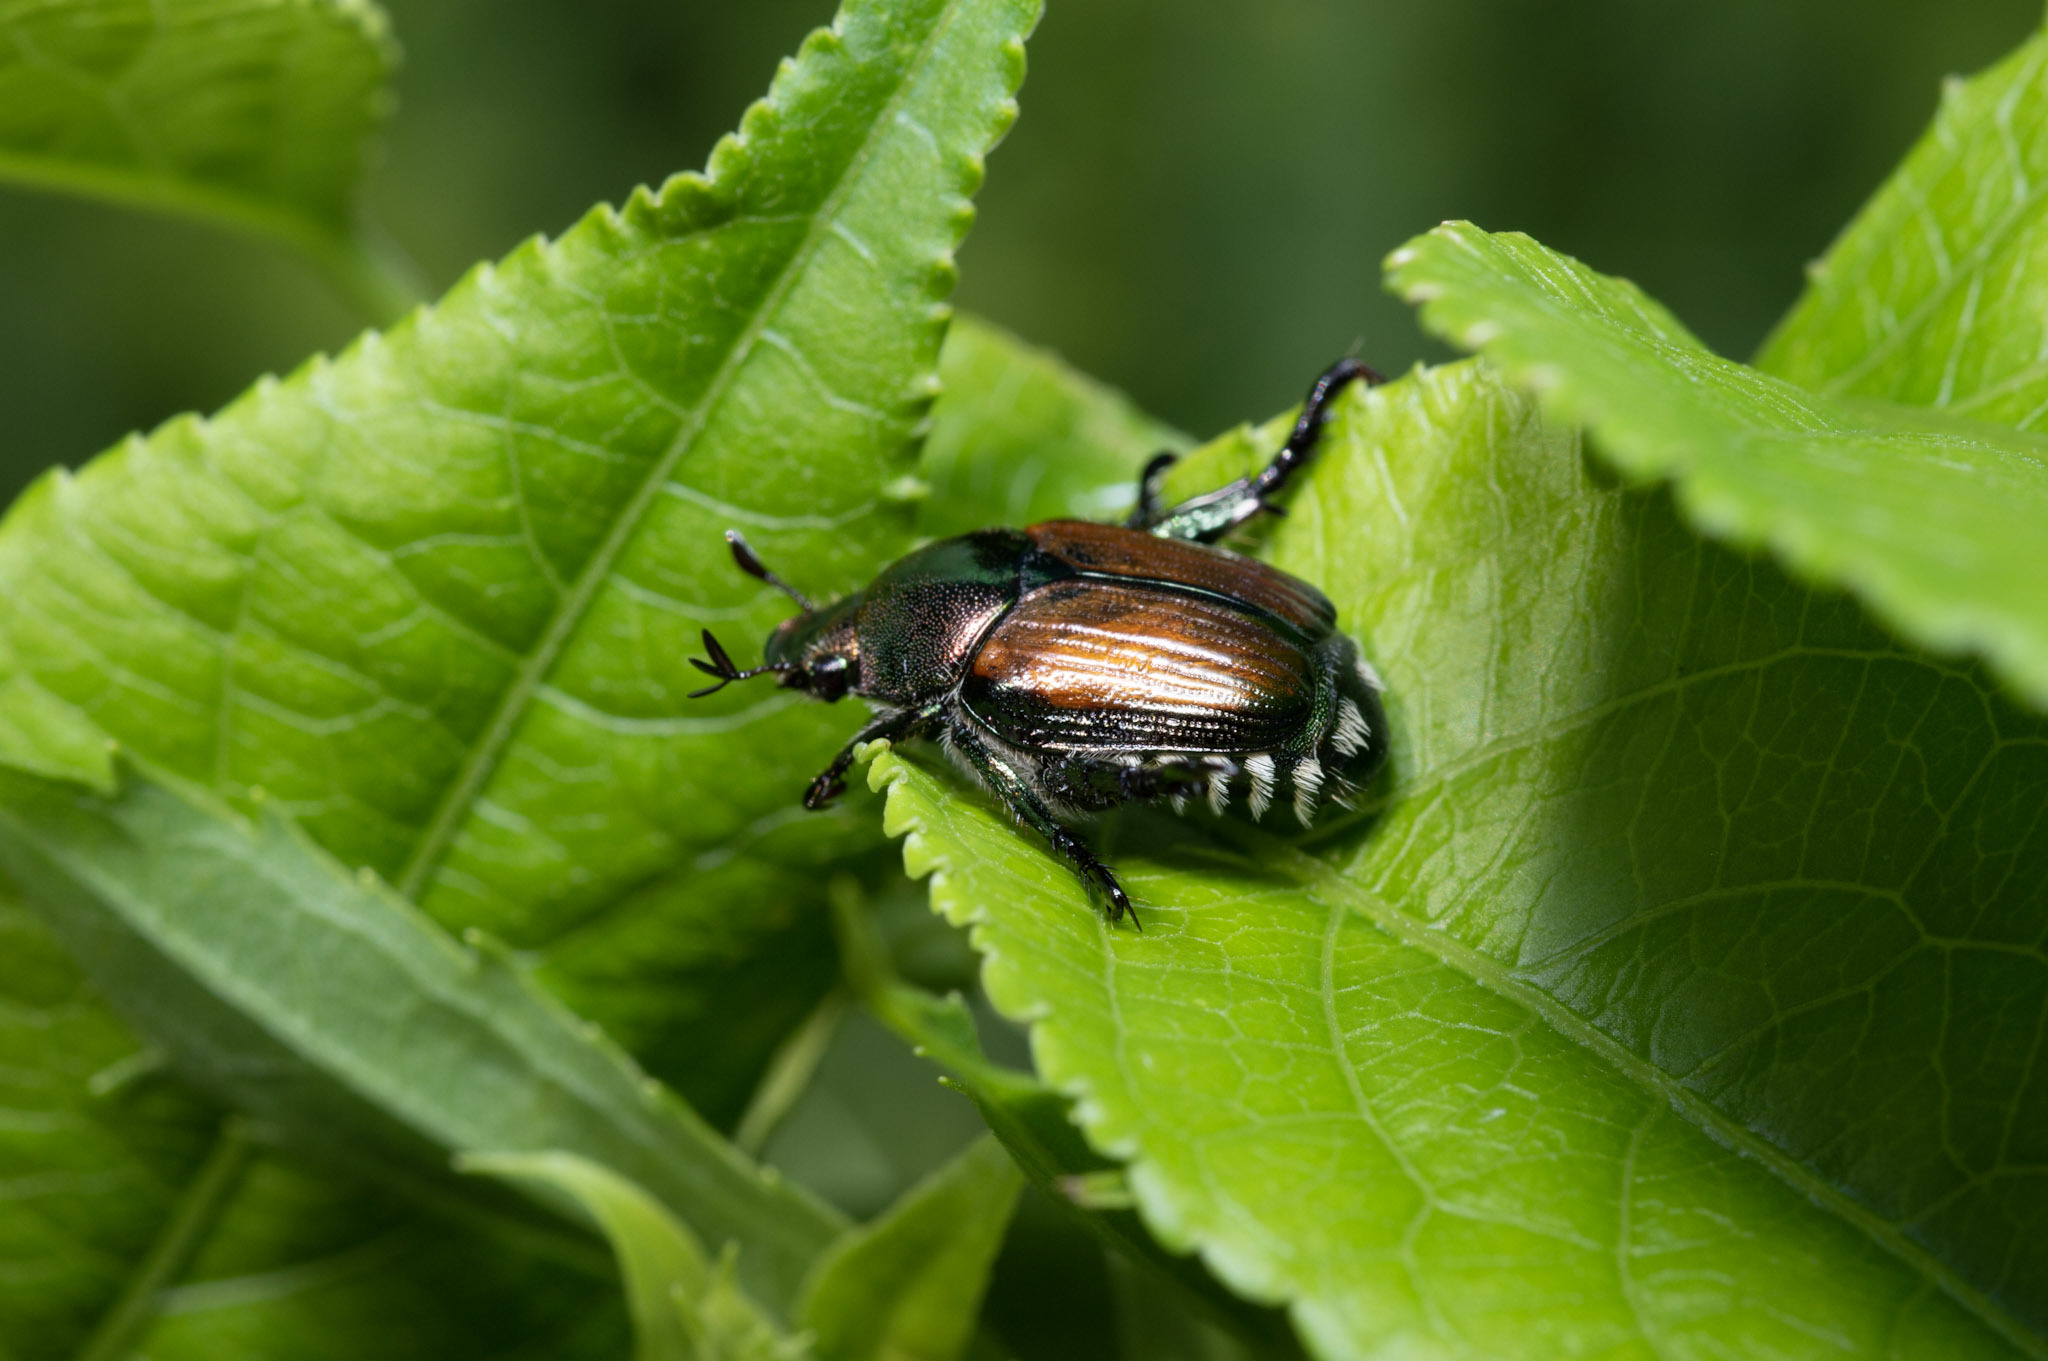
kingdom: Animalia
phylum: Arthropoda
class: Insecta
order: Coleoptera
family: Scarabaeidae
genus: Popillia
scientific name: Popillia japonica
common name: Japanese beetle
